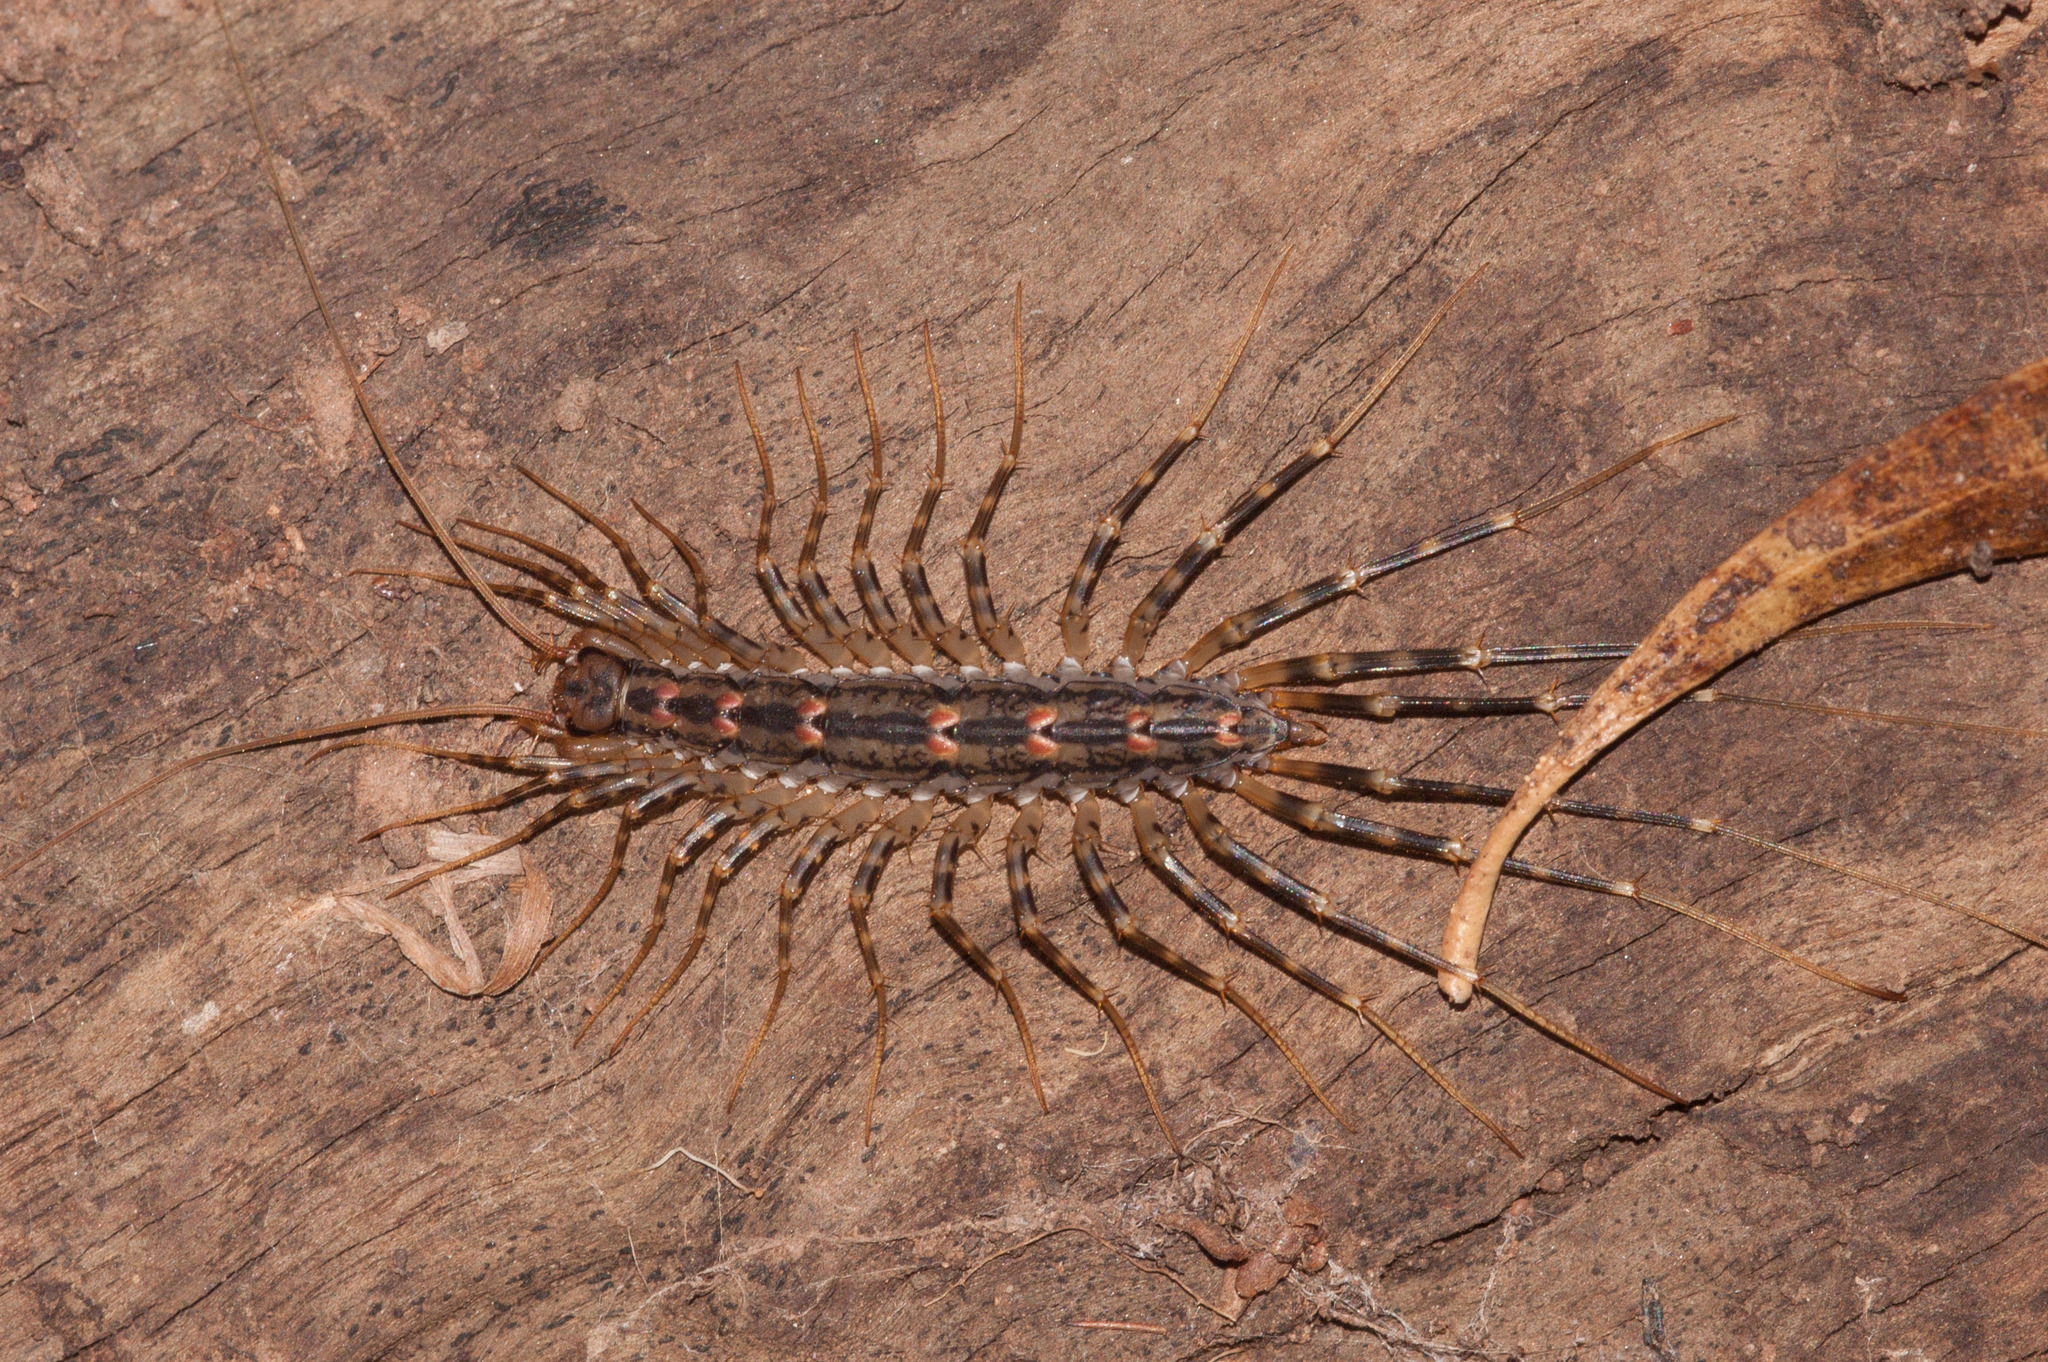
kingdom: Animalia
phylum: Arthropoda
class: Chilopoda
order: Scutigeromorpha
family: Scutigeridae
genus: Allothereua
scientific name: Allothereua maculata
